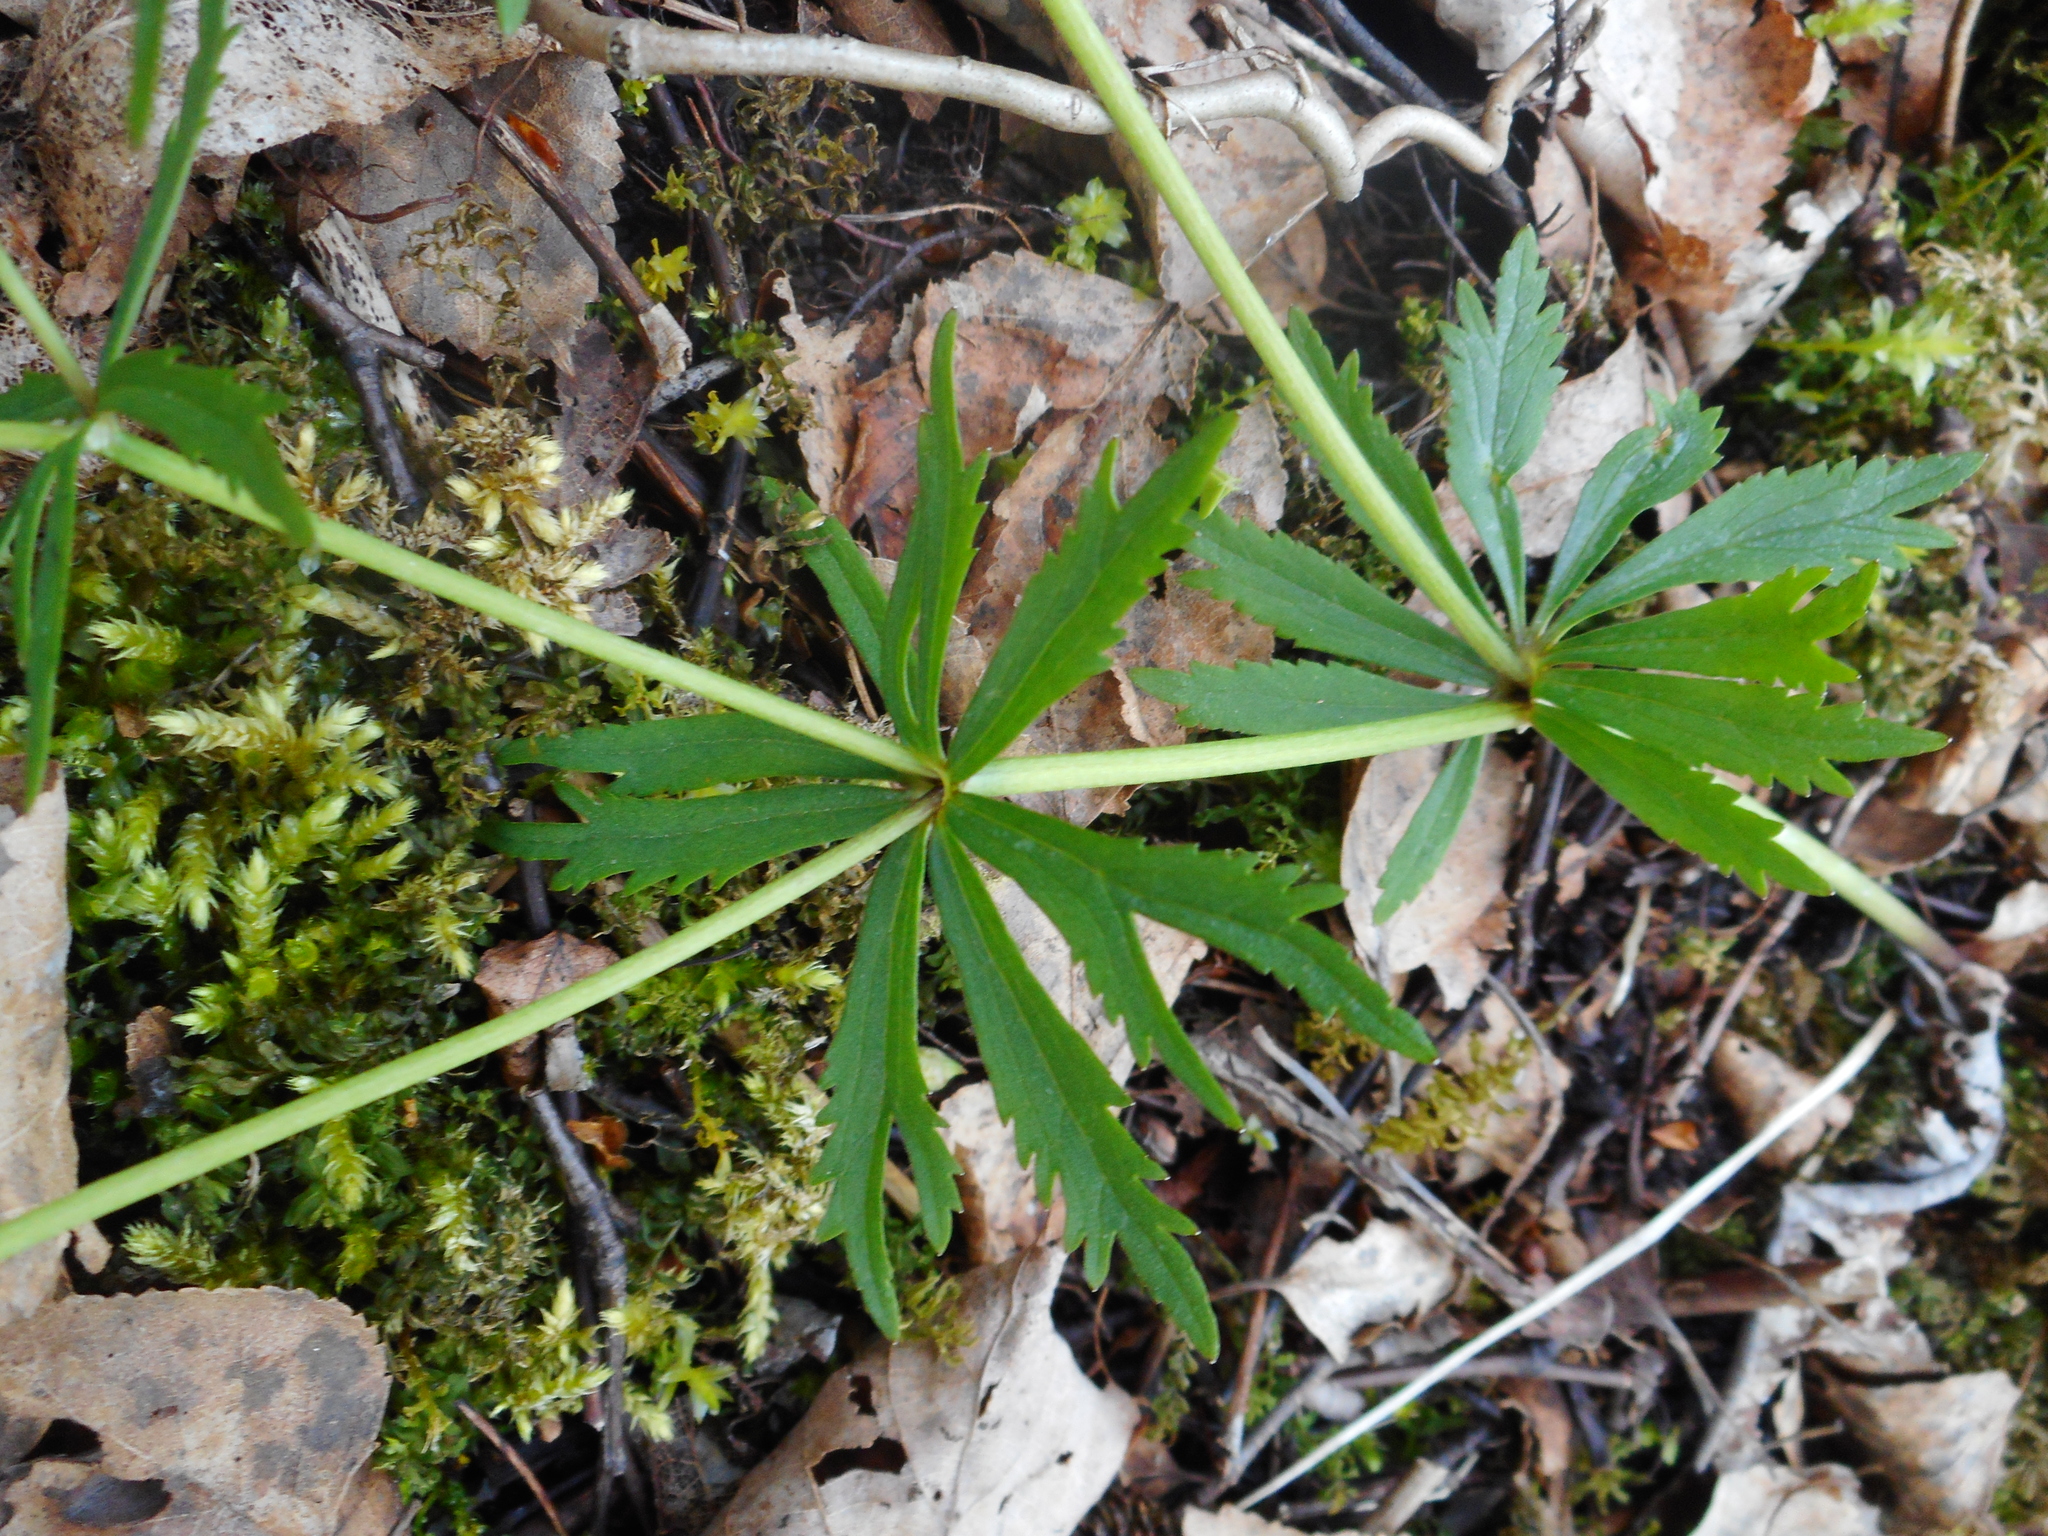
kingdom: Plantae
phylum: Tracheophyta
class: Magnoliopsida
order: Ranunculales
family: Ranunculaceae
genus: Ranunculus
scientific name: Ranunculus auricomus
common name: Goldilocks buttercup
